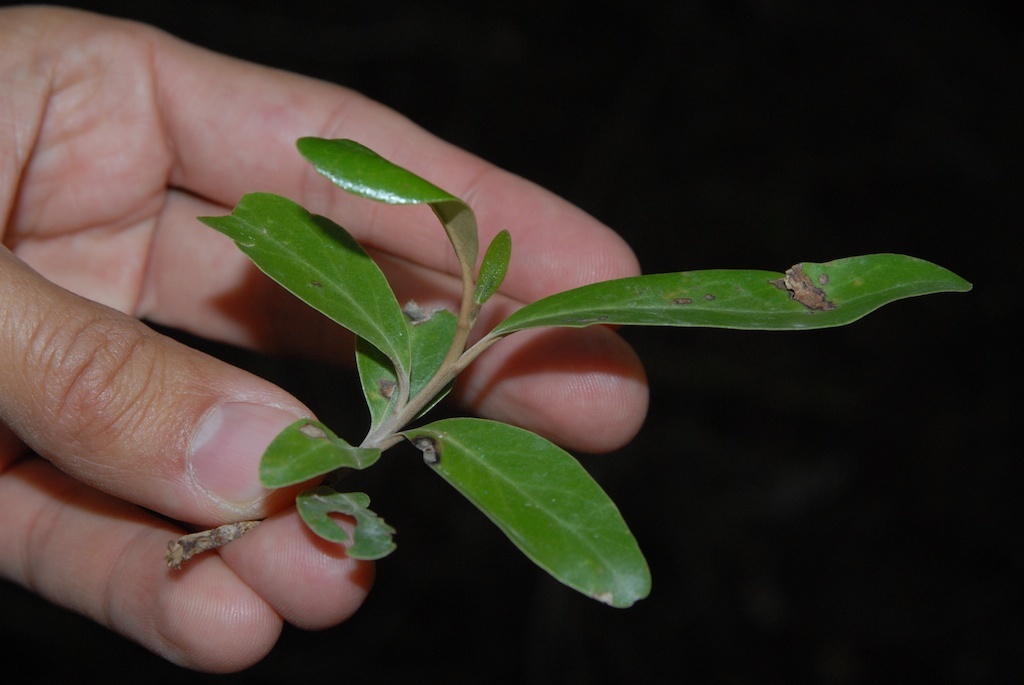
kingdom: Plantae
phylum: Tracheophyta
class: Magnoliopsida
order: Asterales
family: Asteraceae
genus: Olearia
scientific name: Olearia avicenniifolia
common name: Mangrove-leaf daisybush
